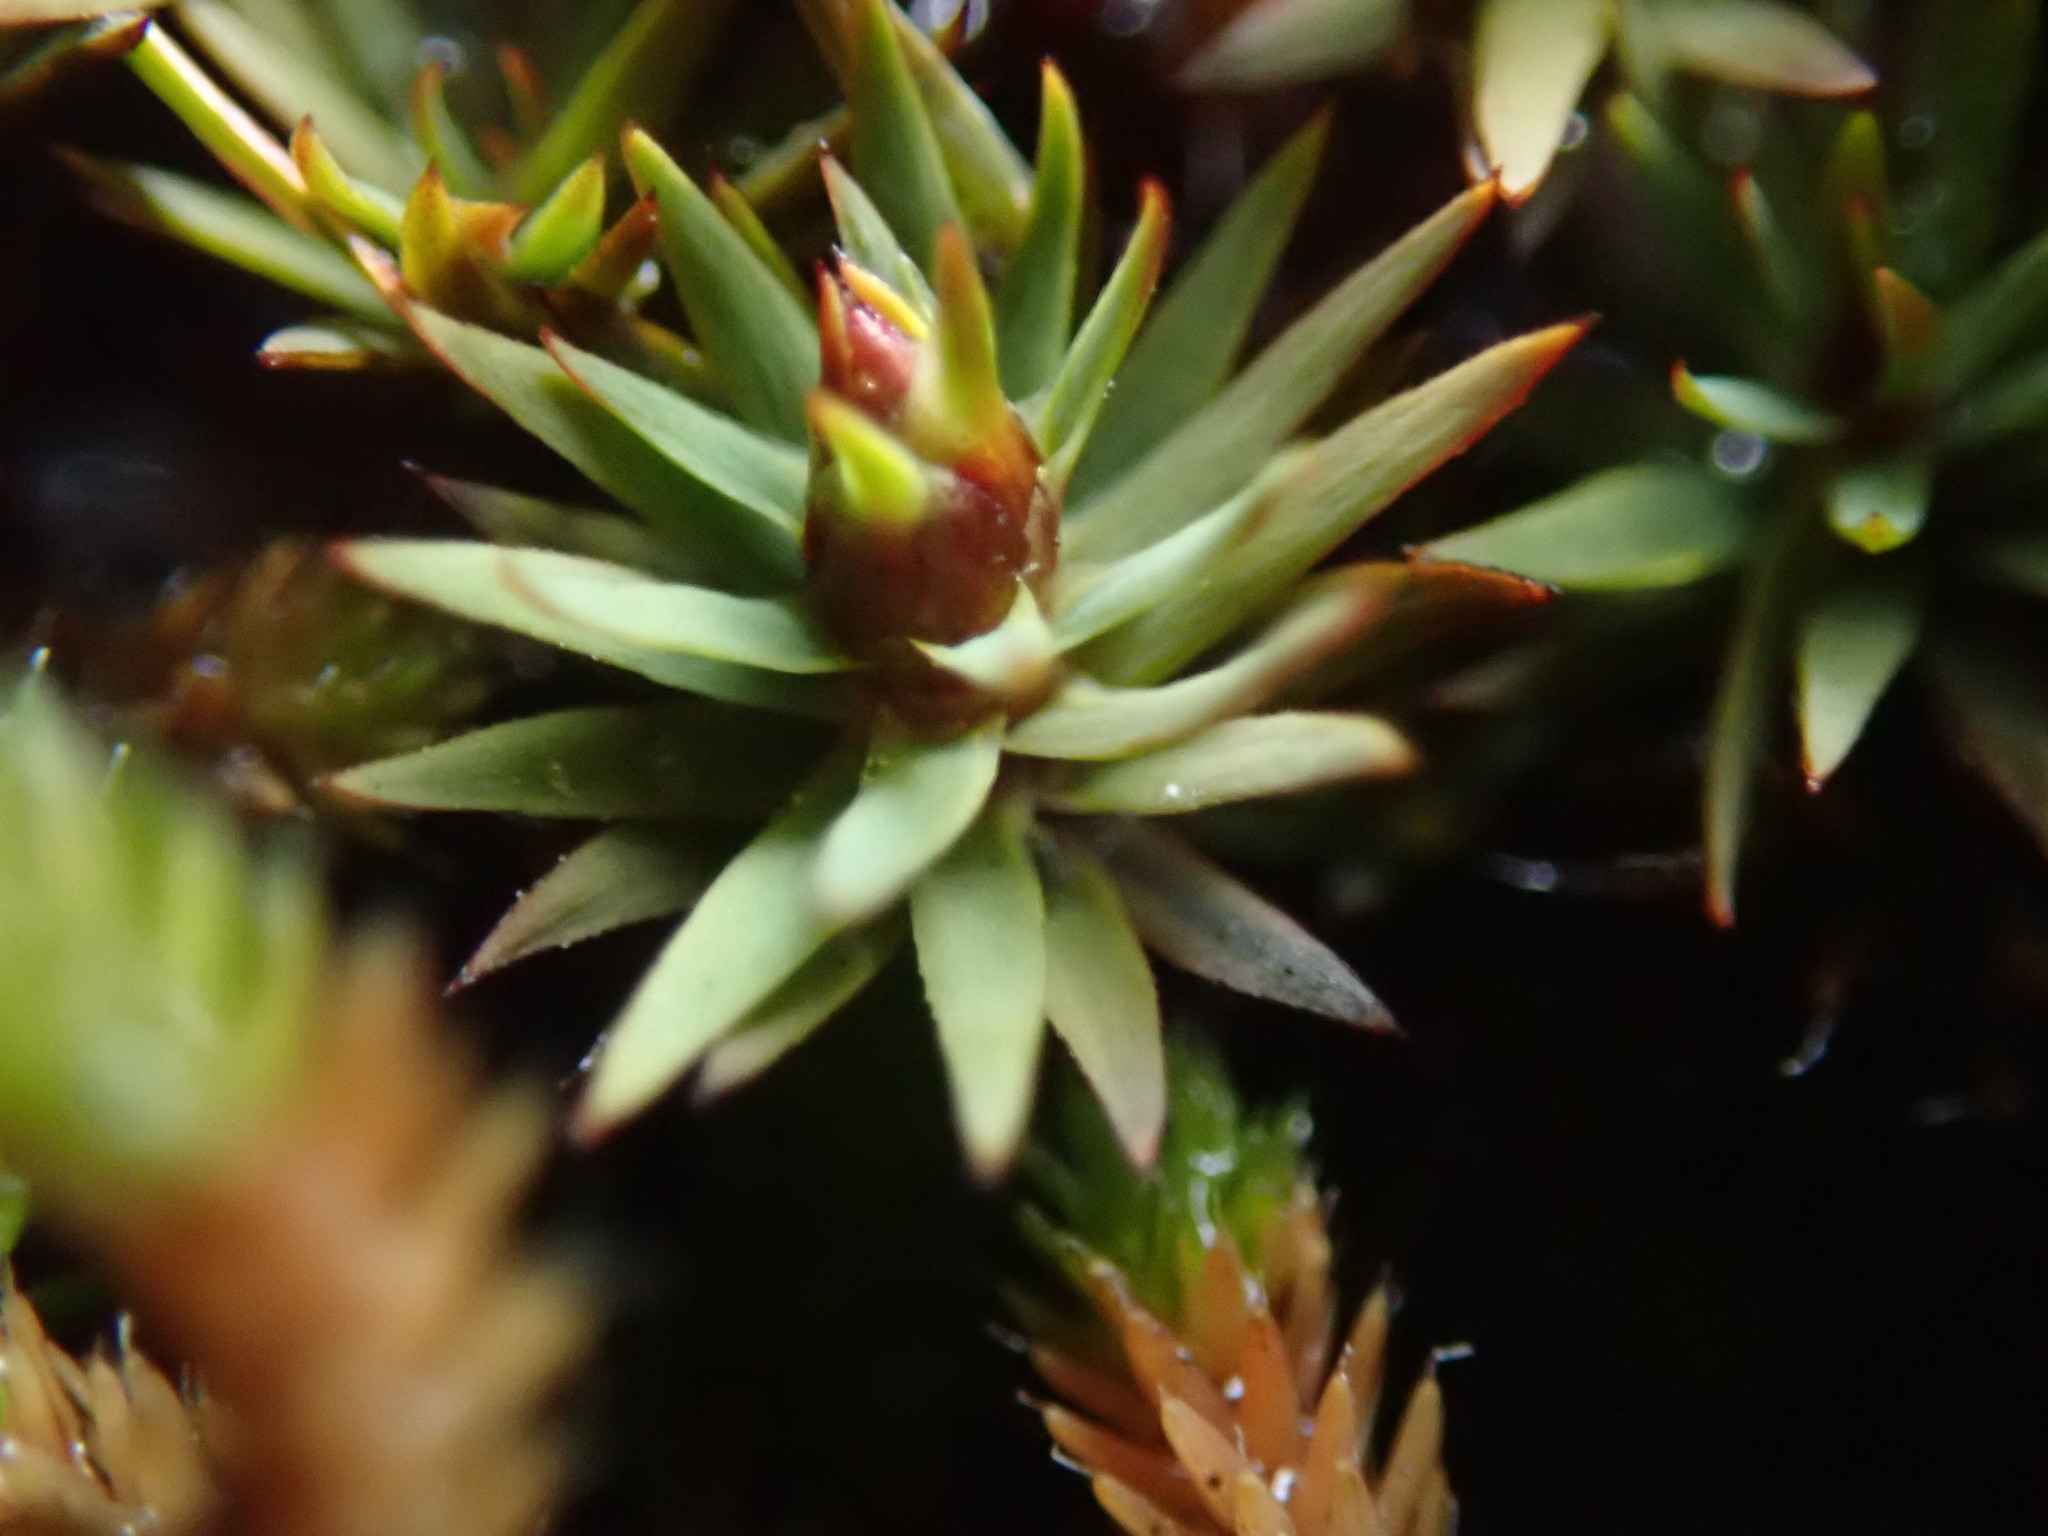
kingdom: Plantae
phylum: Bryophyta
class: Polytrichopsida
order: Polytrichales
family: Polytrichaceae
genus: Pogonatum
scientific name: Pogonatum urnigerum
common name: Urn hair moss
